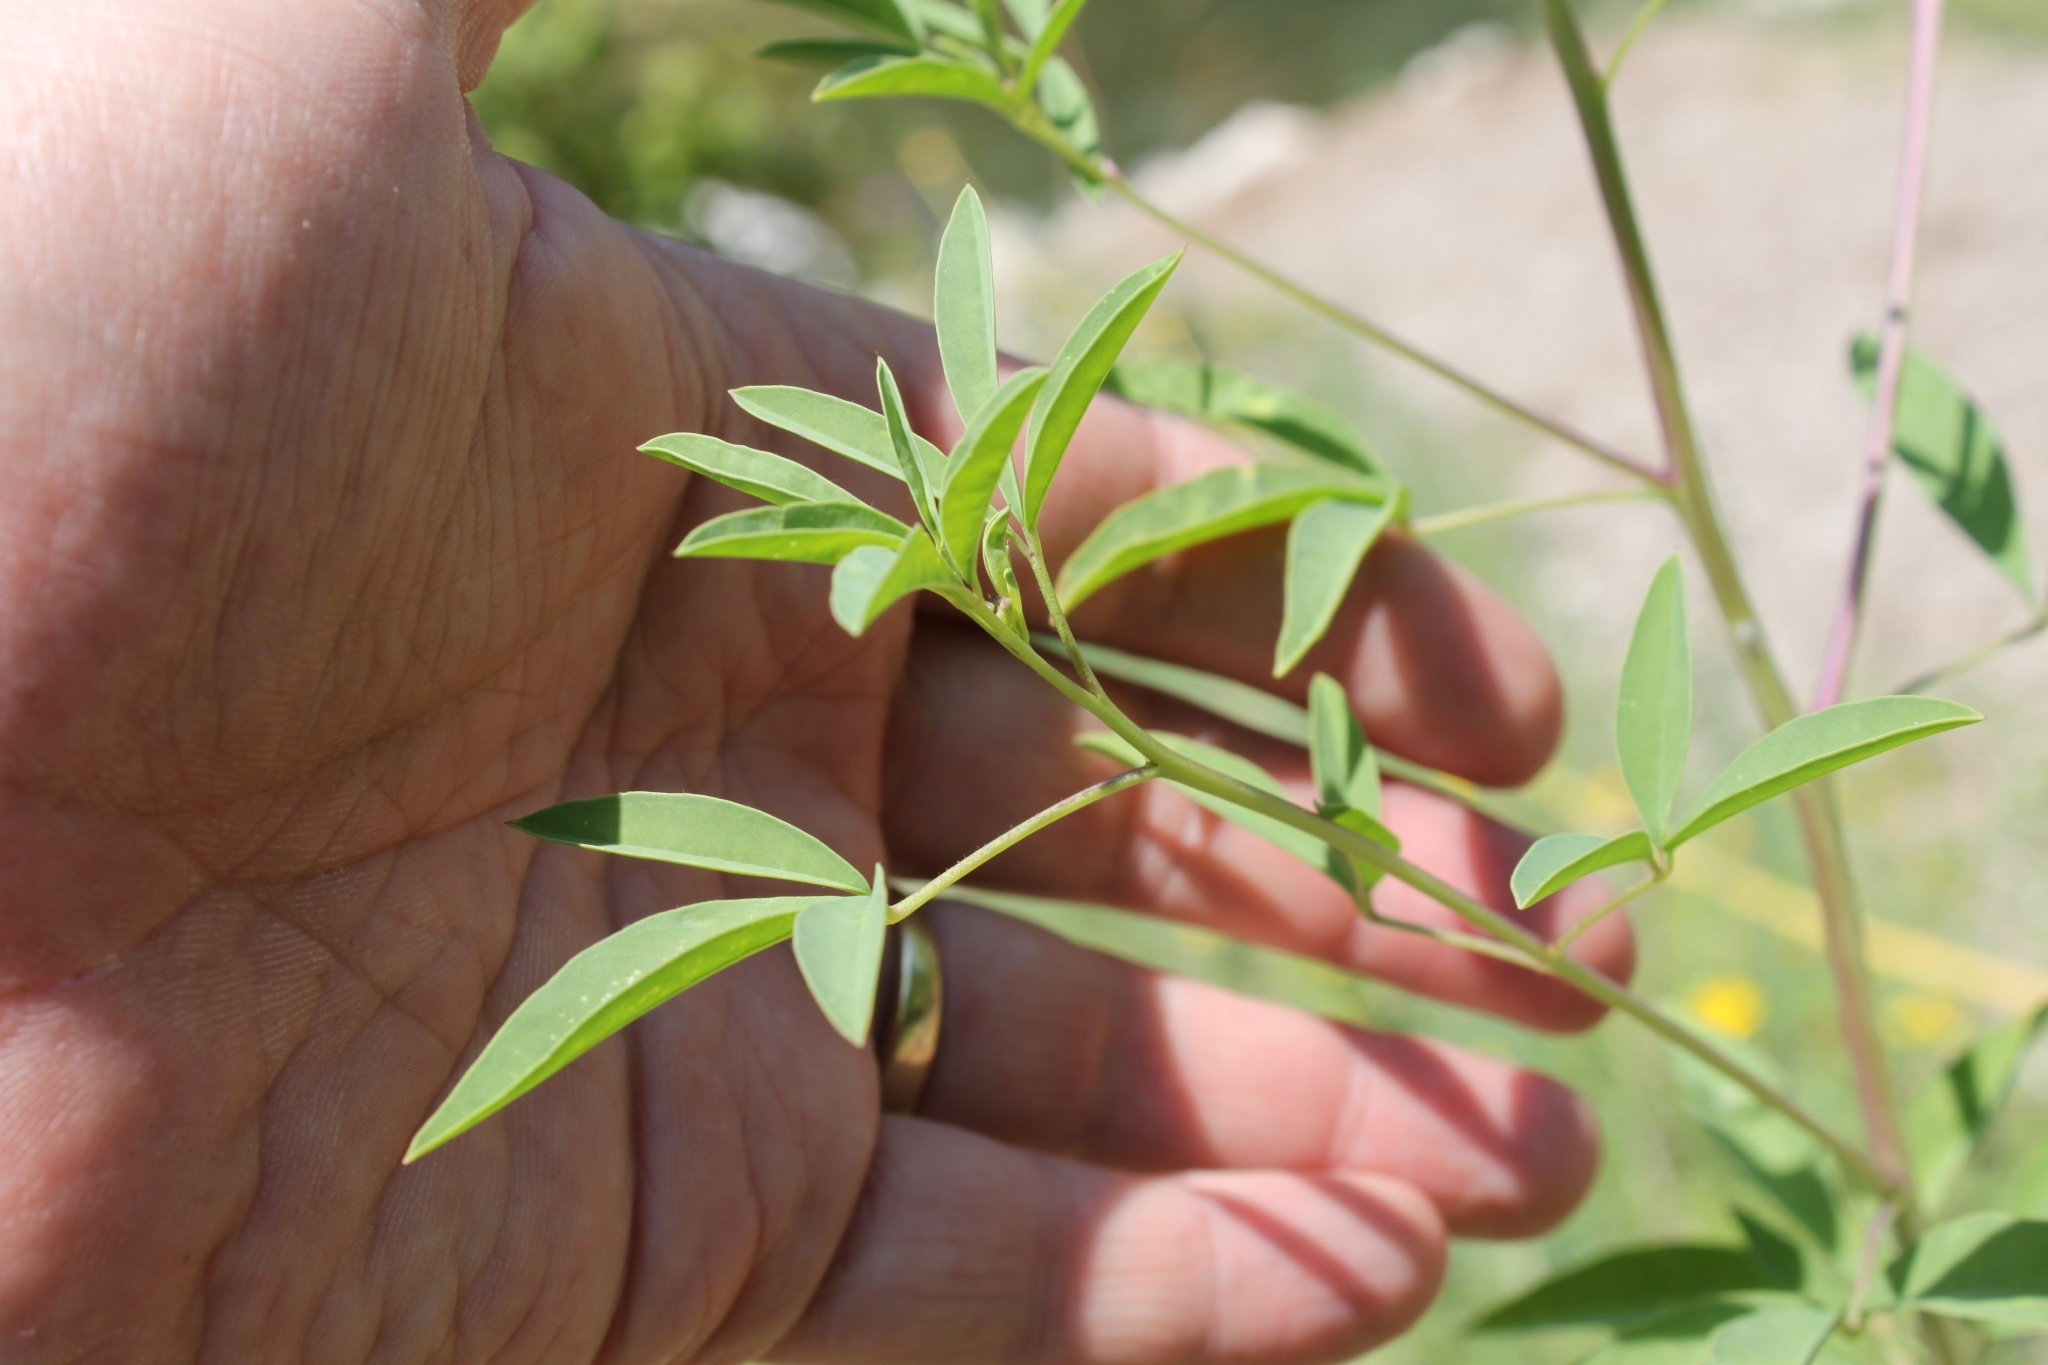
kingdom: Plantae
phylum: Tracheophyta
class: Magnoliopsida
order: Brassicales
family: Cleomaceae
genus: Cleomella
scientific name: Cleomella serrulata
